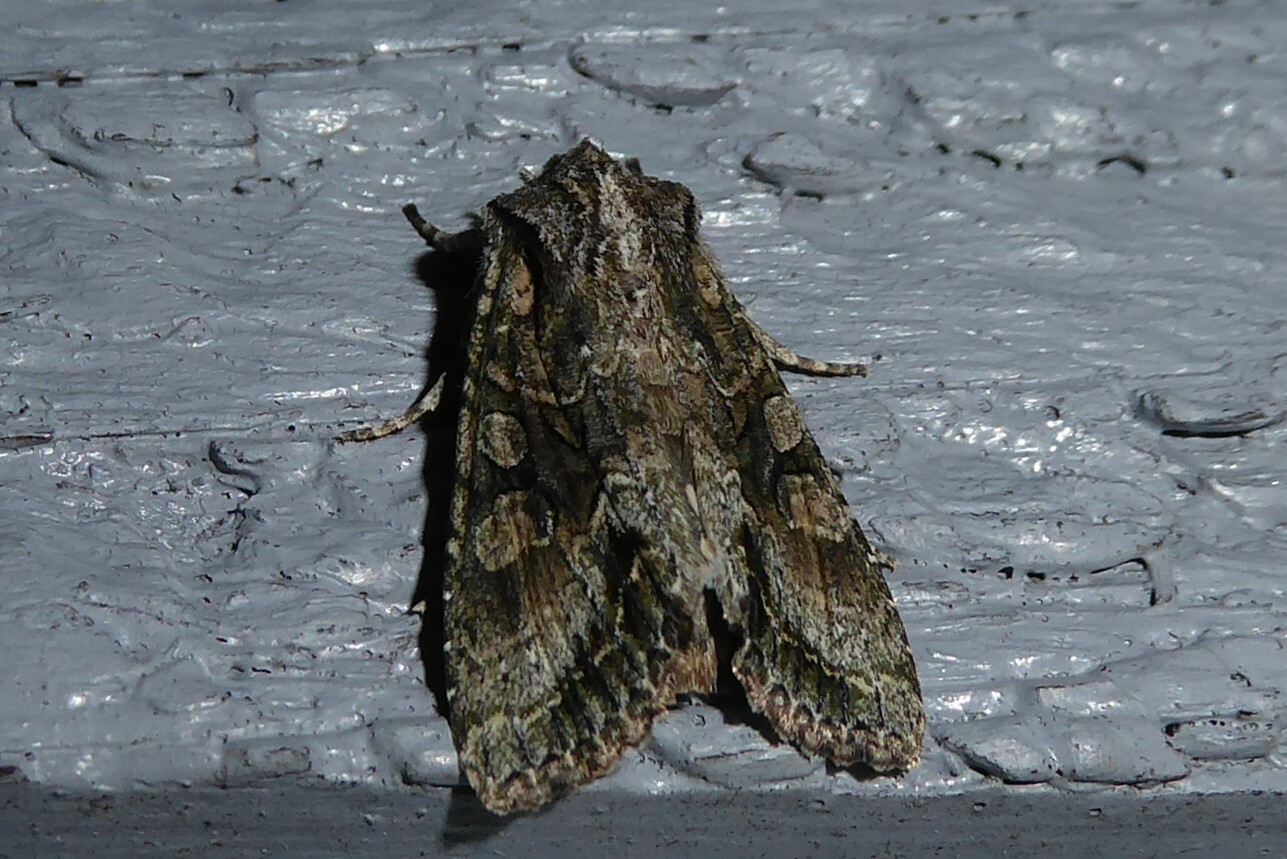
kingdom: Animalia
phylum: Arthropoda
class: Insecta
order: Lepidoptera
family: Noctuidae
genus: Ichneutica
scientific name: Ichneutica mutans
